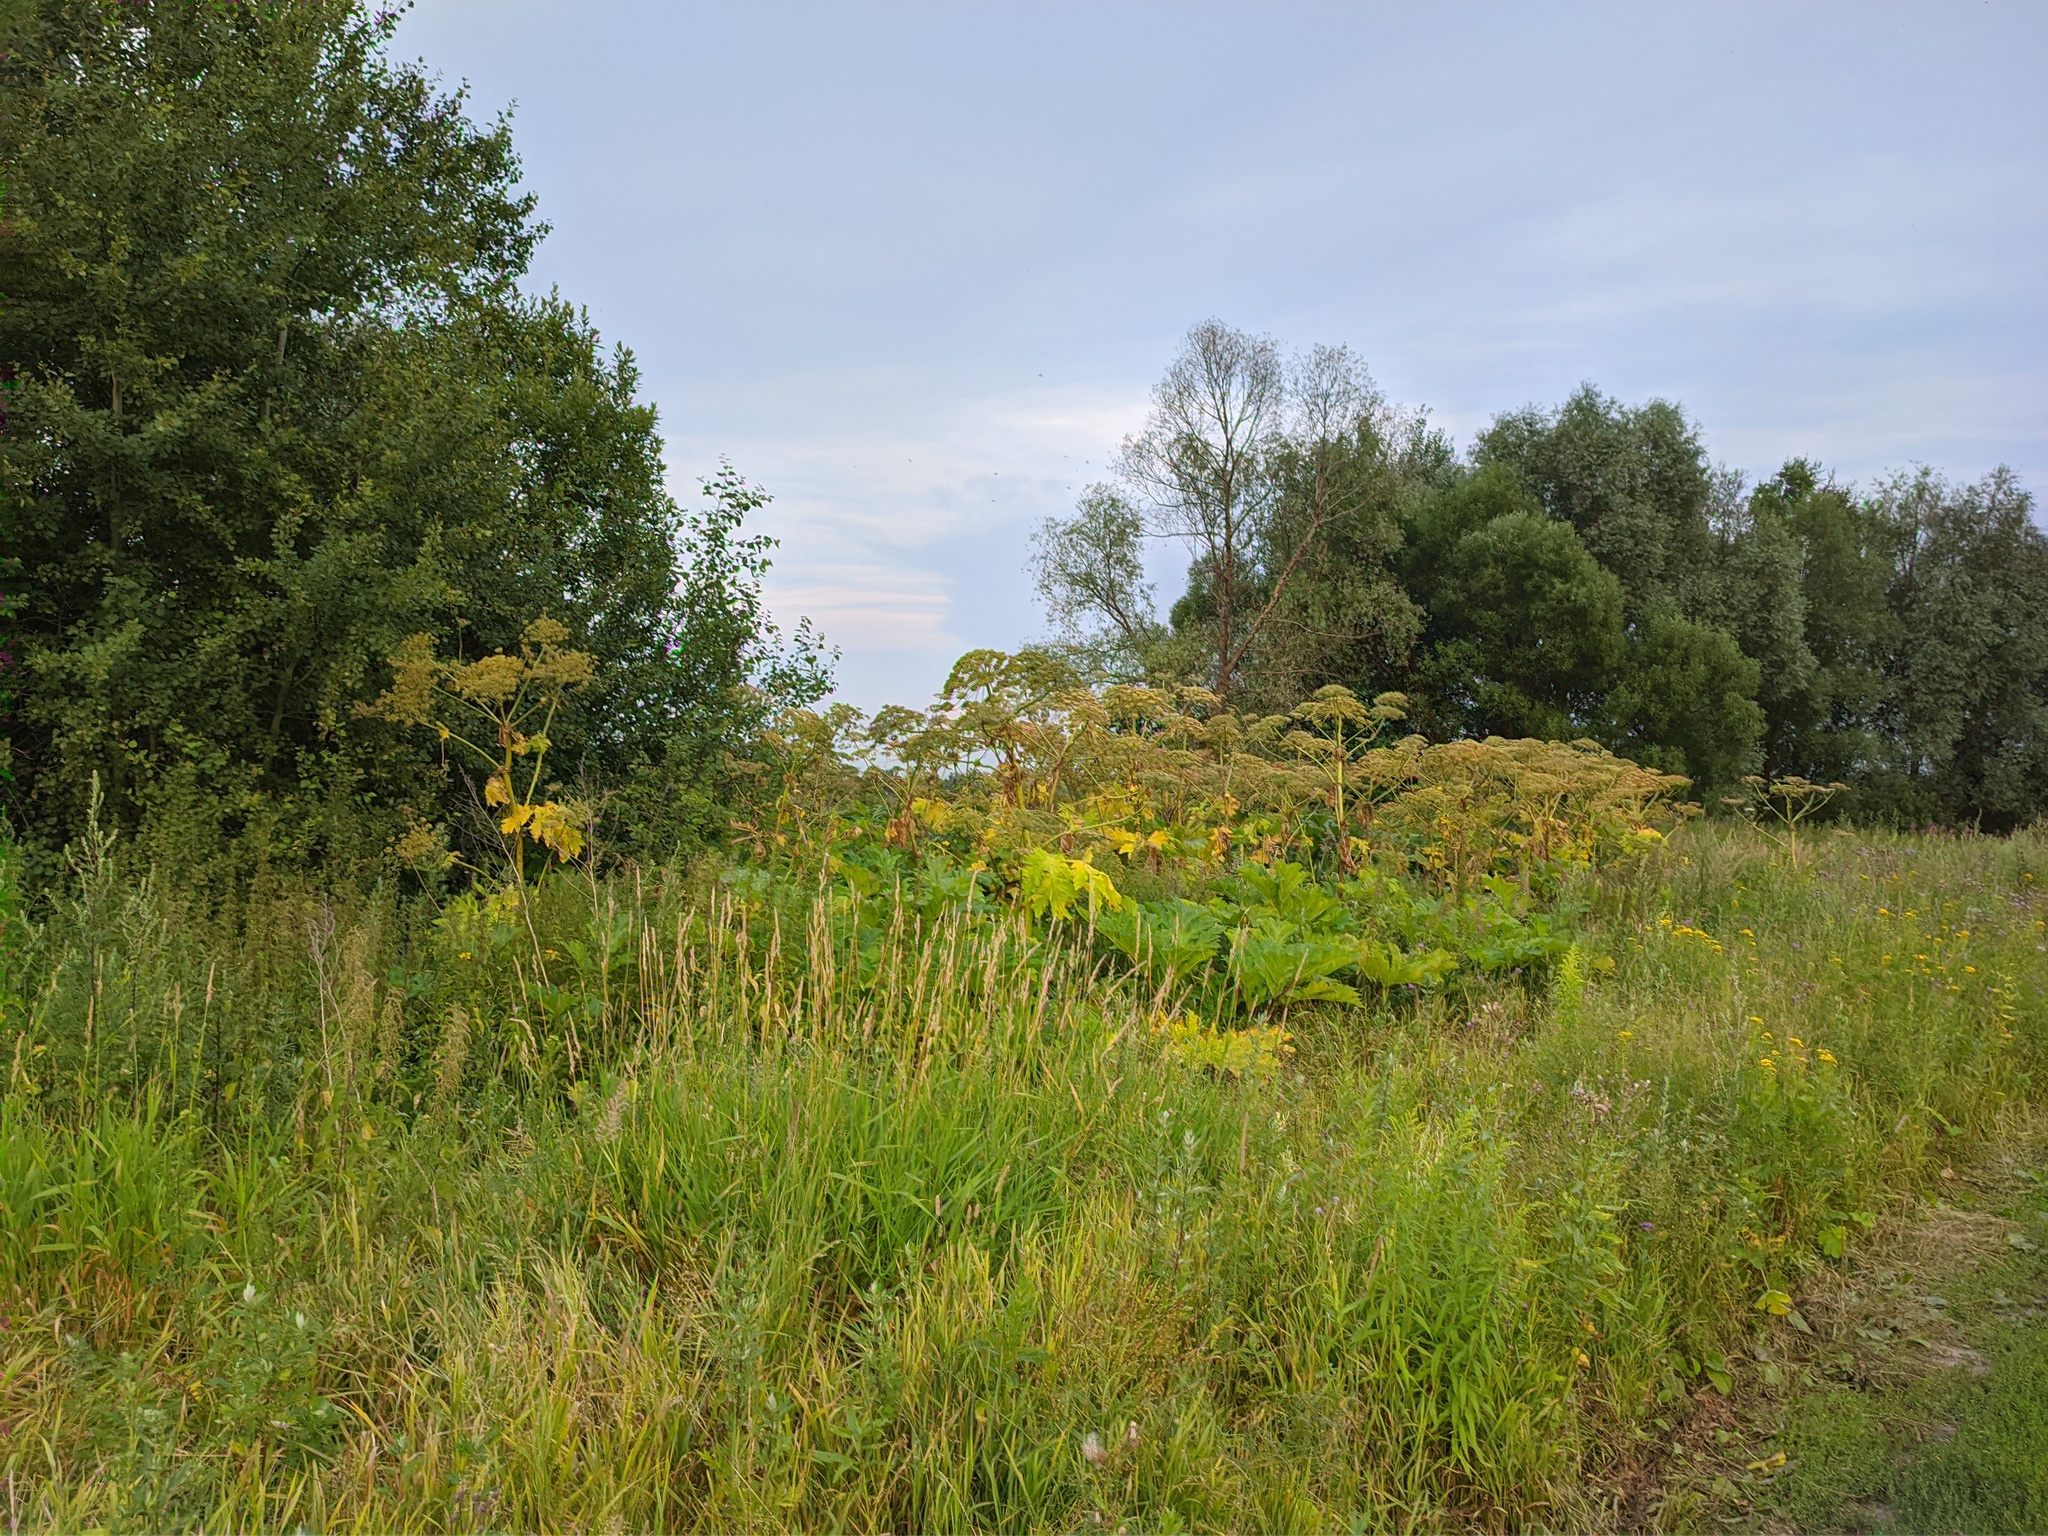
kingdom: Plantae
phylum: Tracheophyta
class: Magnoliopsida
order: Apiales
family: Apiaceae
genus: Heracleum
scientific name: Heracleum sosnowskyi
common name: Sosnowsky's hogweed
